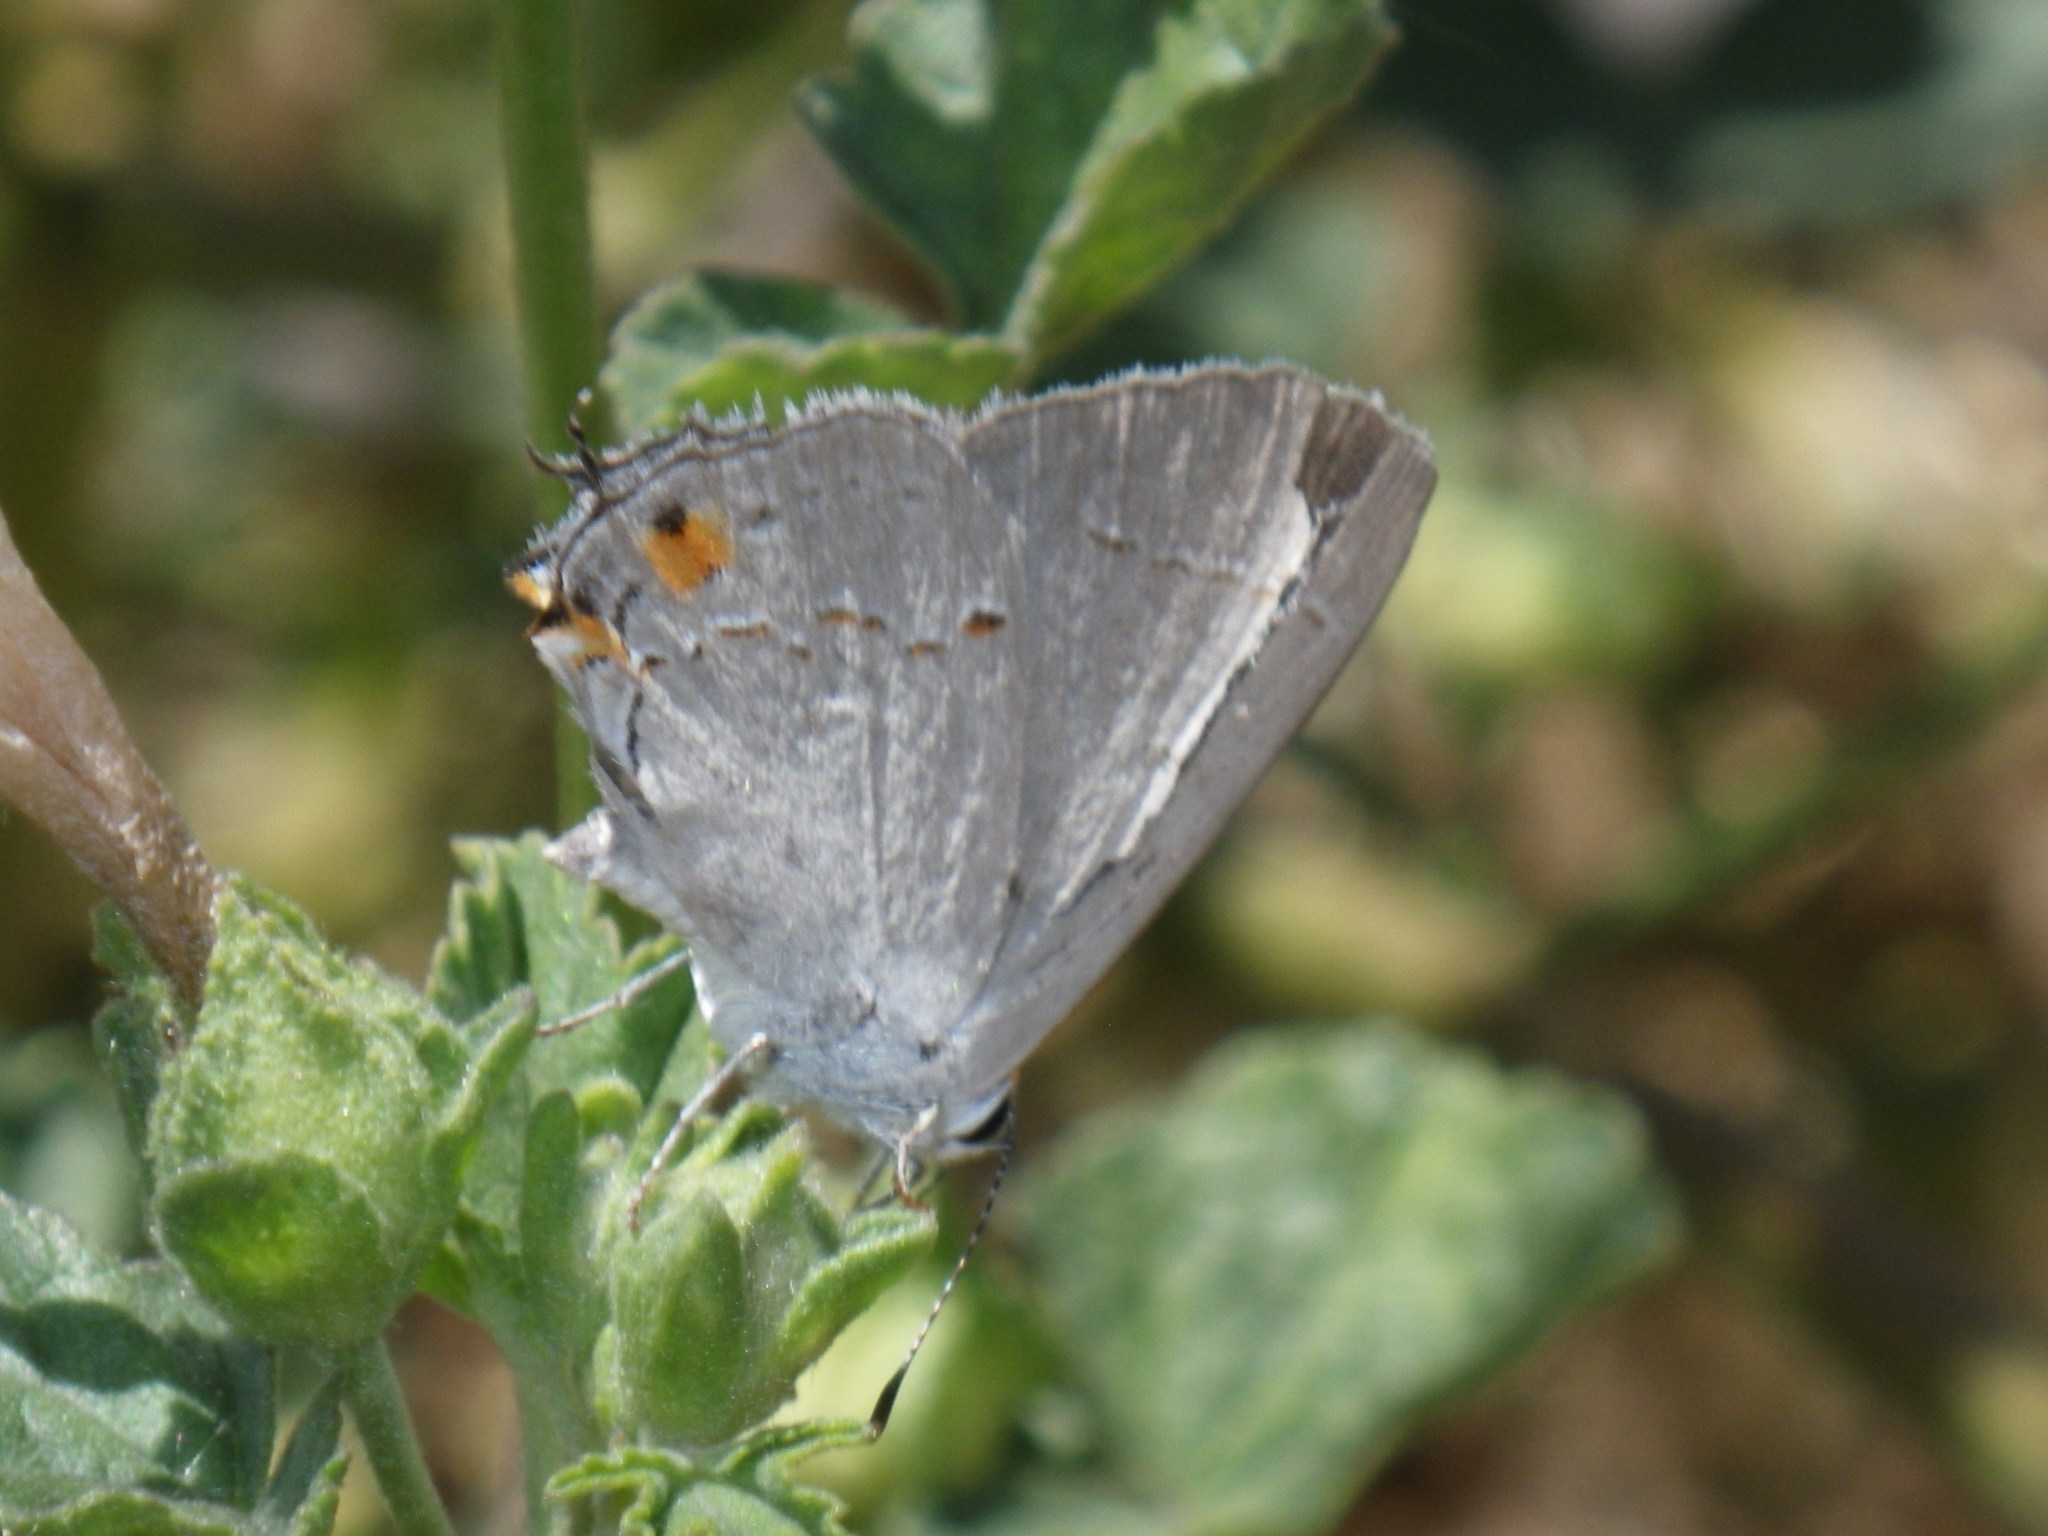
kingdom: Animalia
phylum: Arthropoda
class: Insecta
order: Lepidoptera
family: Lycaenidae
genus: Strymon
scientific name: Strymon melinus
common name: Gray hairstreak
